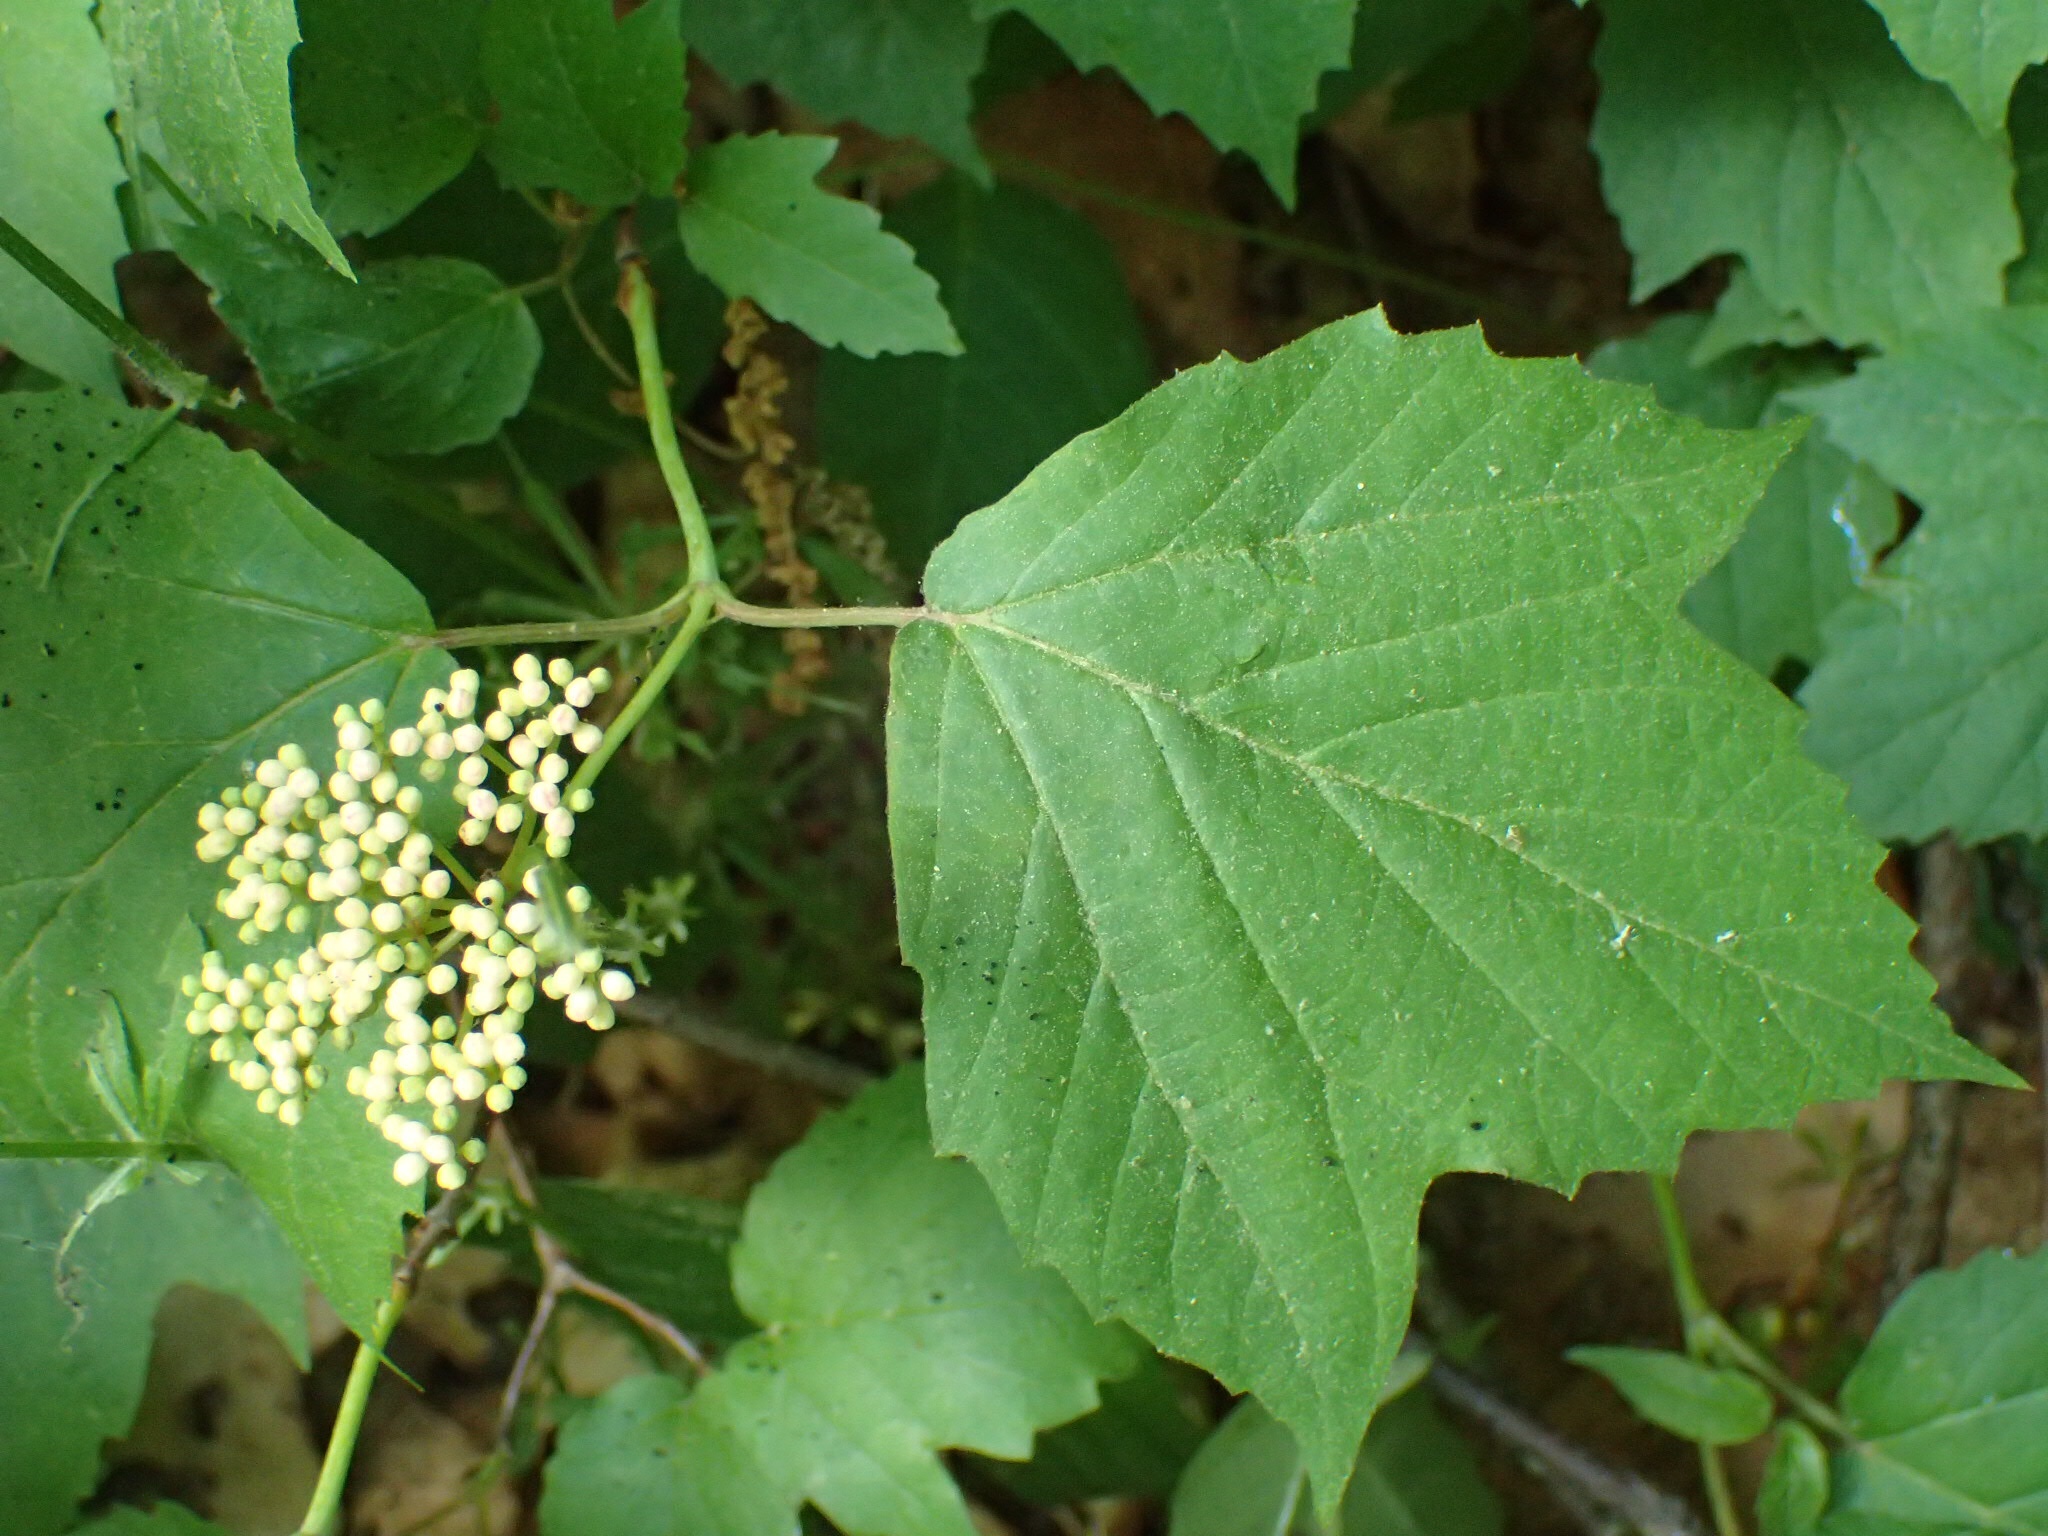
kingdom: Plantae
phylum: Tracheophyta
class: Magnoliopsida
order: Dipsacales
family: Viburnaceae
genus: Viburnum
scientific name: Viburnum acerifolium
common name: Dockmackie
